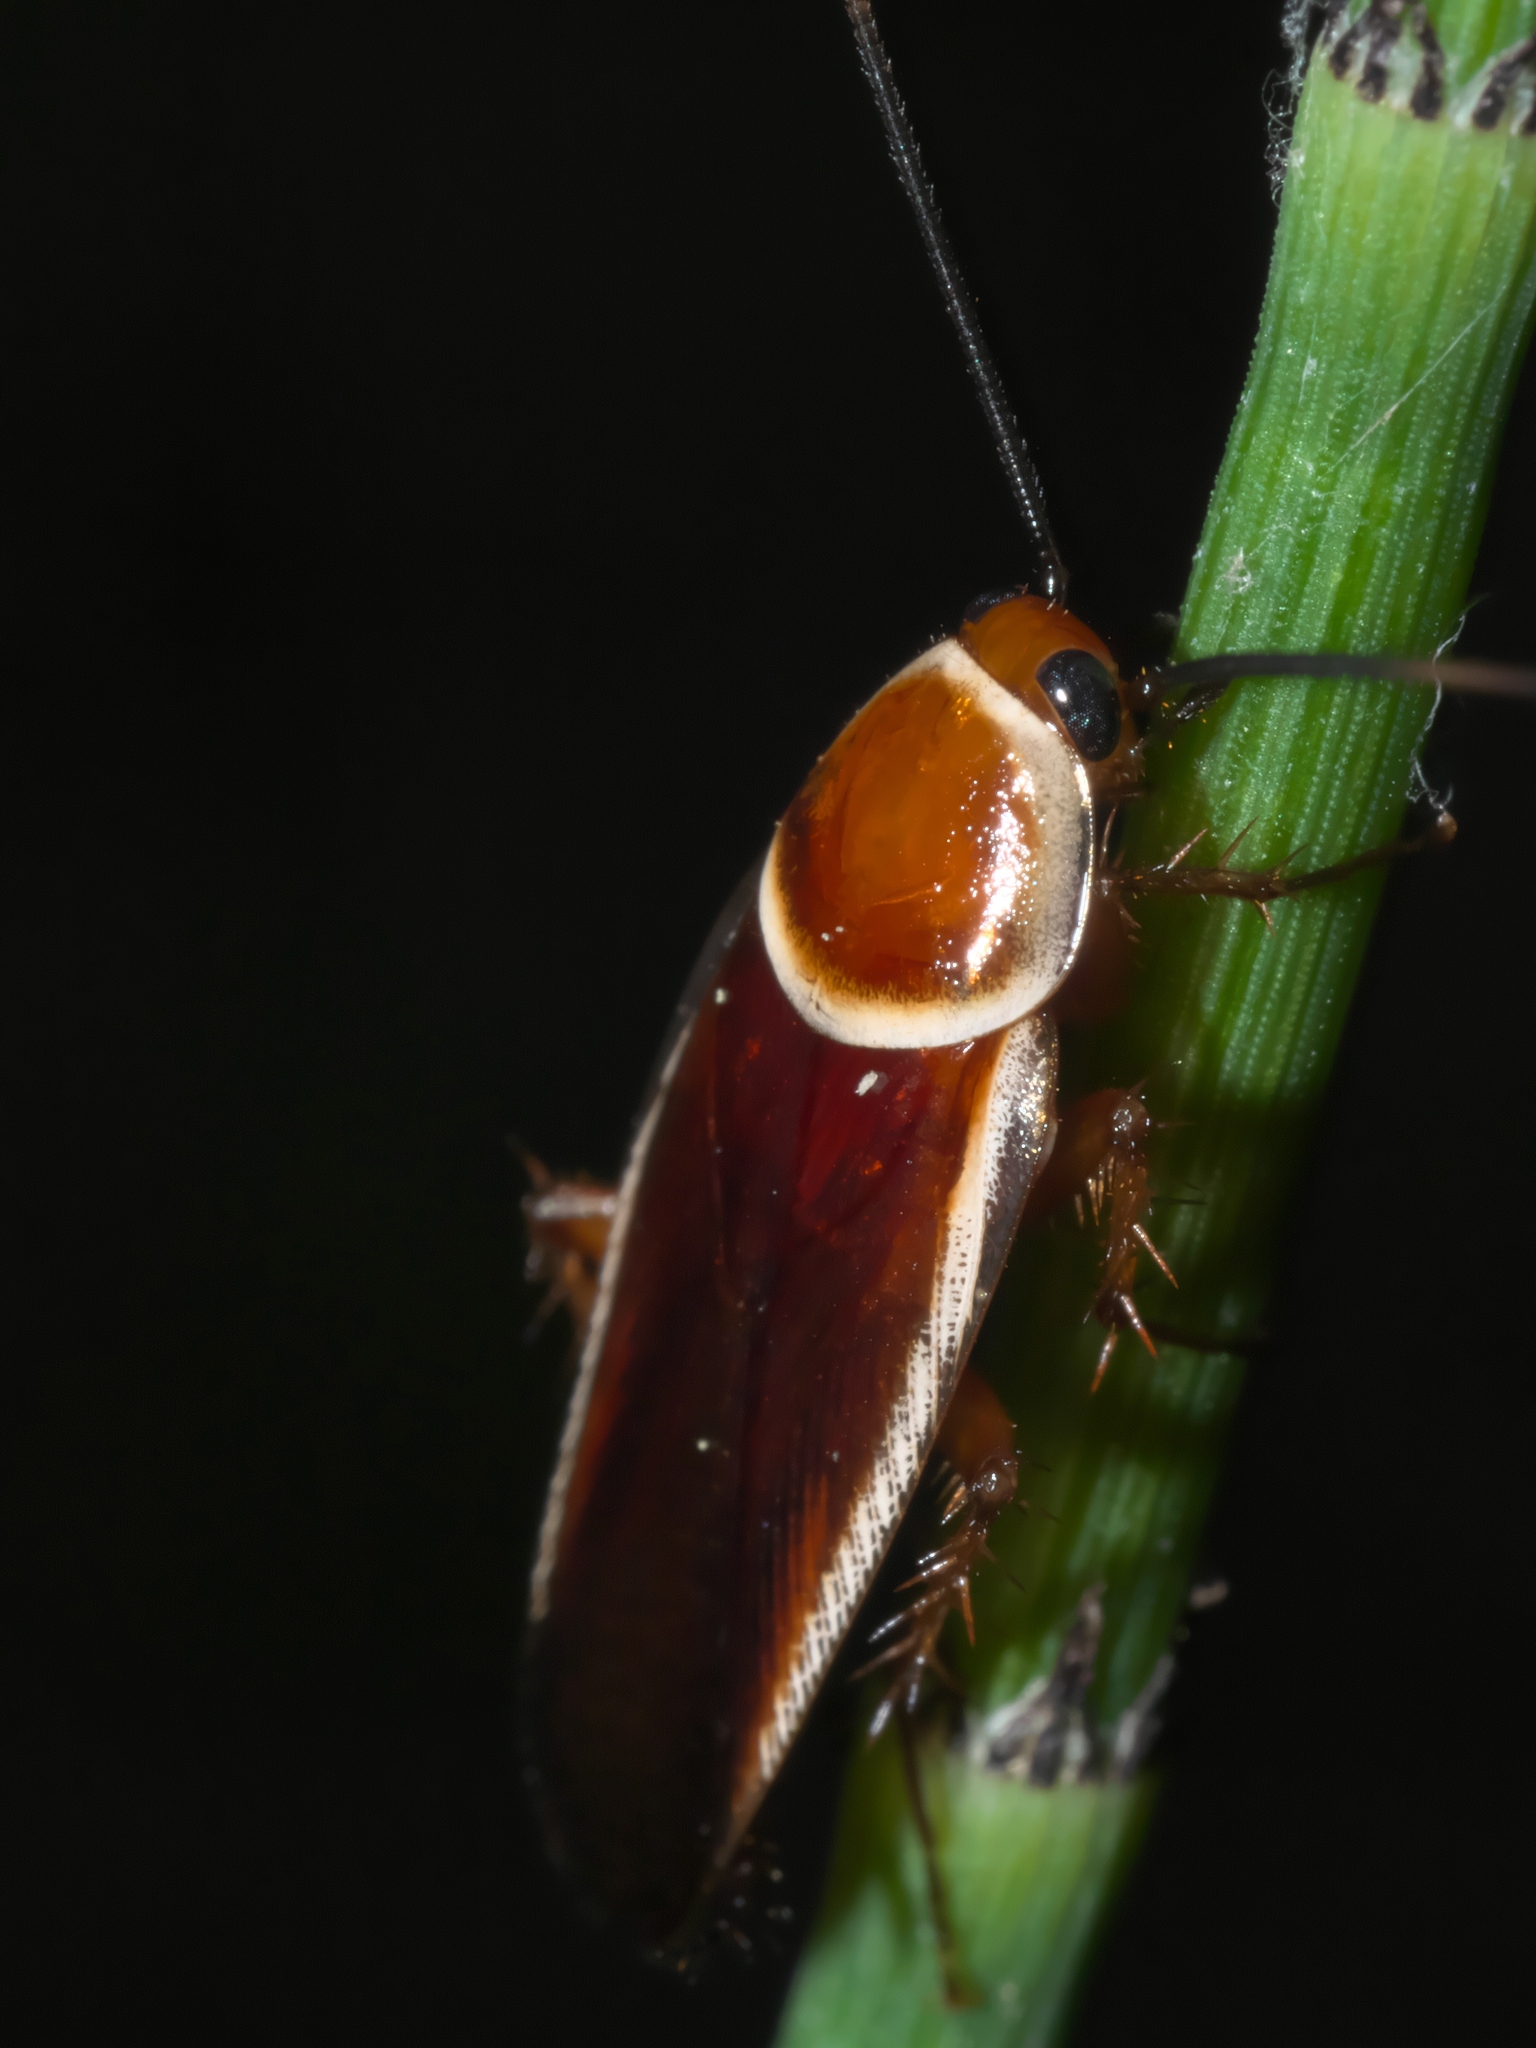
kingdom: Animalia
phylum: Arthropoda
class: Insecta
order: Blattodea
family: Ectobiidae
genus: Pseudomops
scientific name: Pseudomops septentrionalis
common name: Pale-bordered field cockroach
